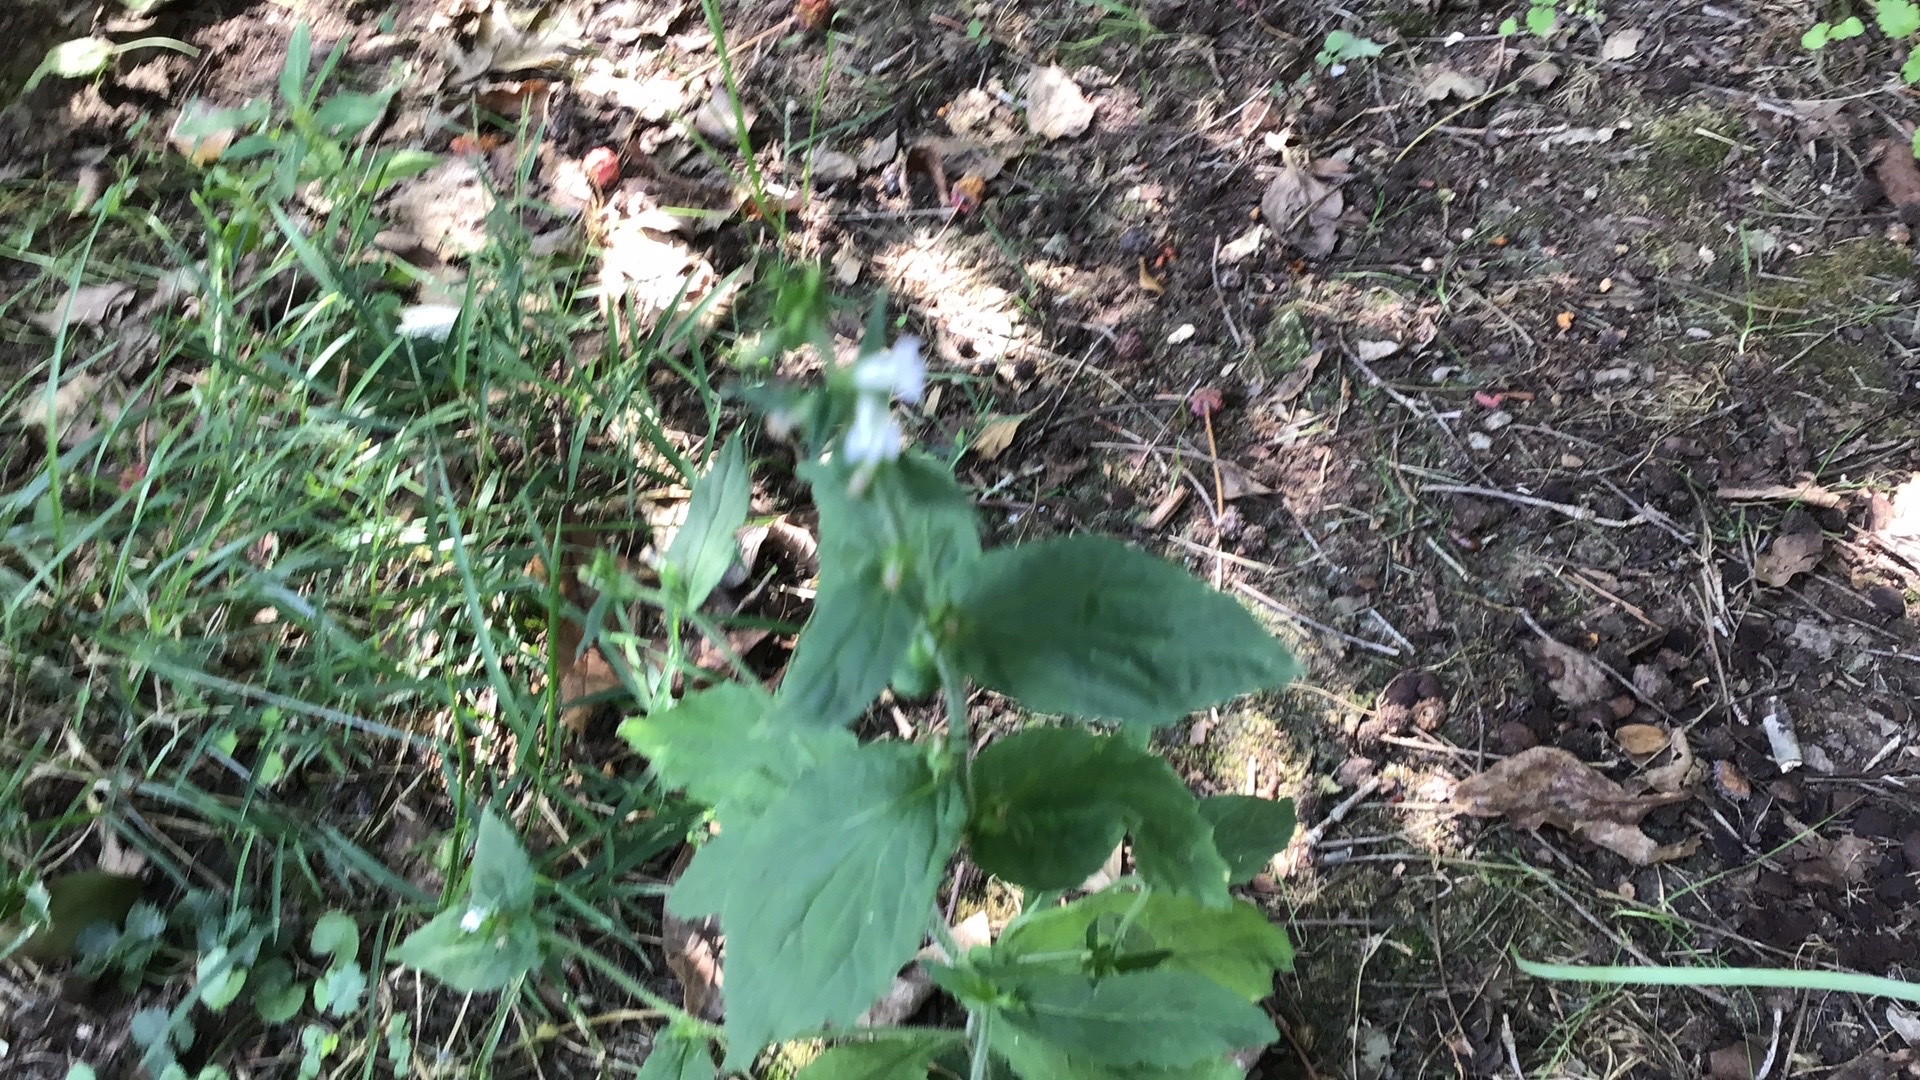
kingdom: Plantae
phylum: Tracheophyta
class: Magnoliopsida
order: Asterales
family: Campanulaceae
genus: Lobelia
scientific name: Lobelia inflata
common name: Indian tobacco
